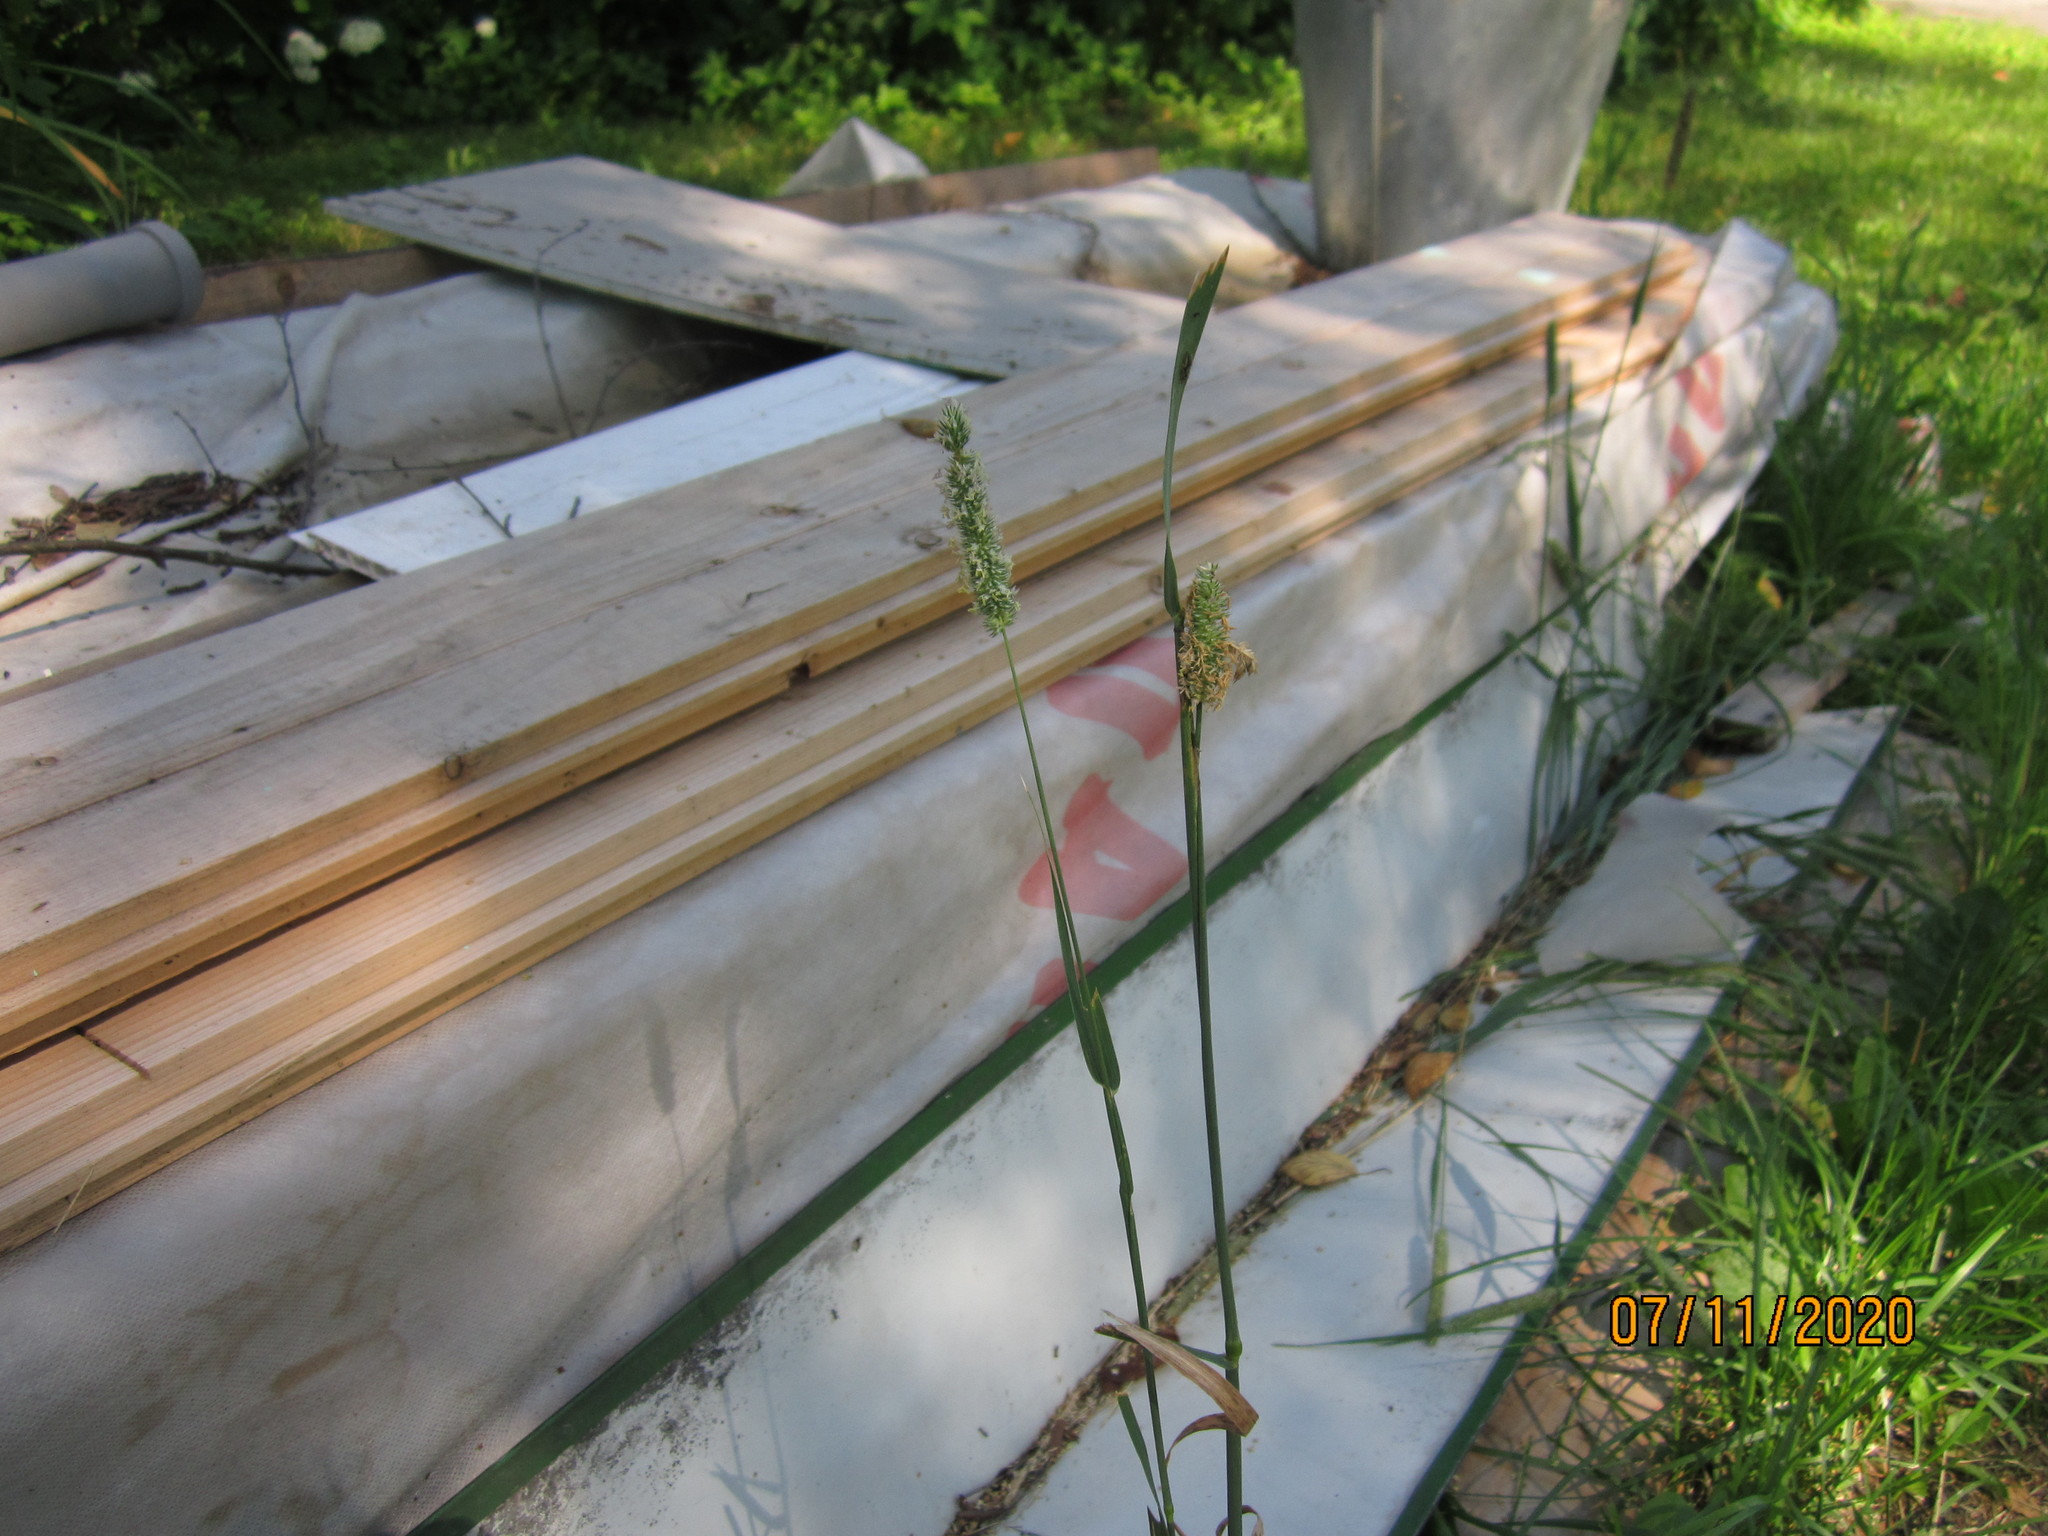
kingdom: Plantae
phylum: Tracheophyta
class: Liliopsida
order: Poales
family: Poaceae
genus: Phleum
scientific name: Phleum pratense
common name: Timothy grass
